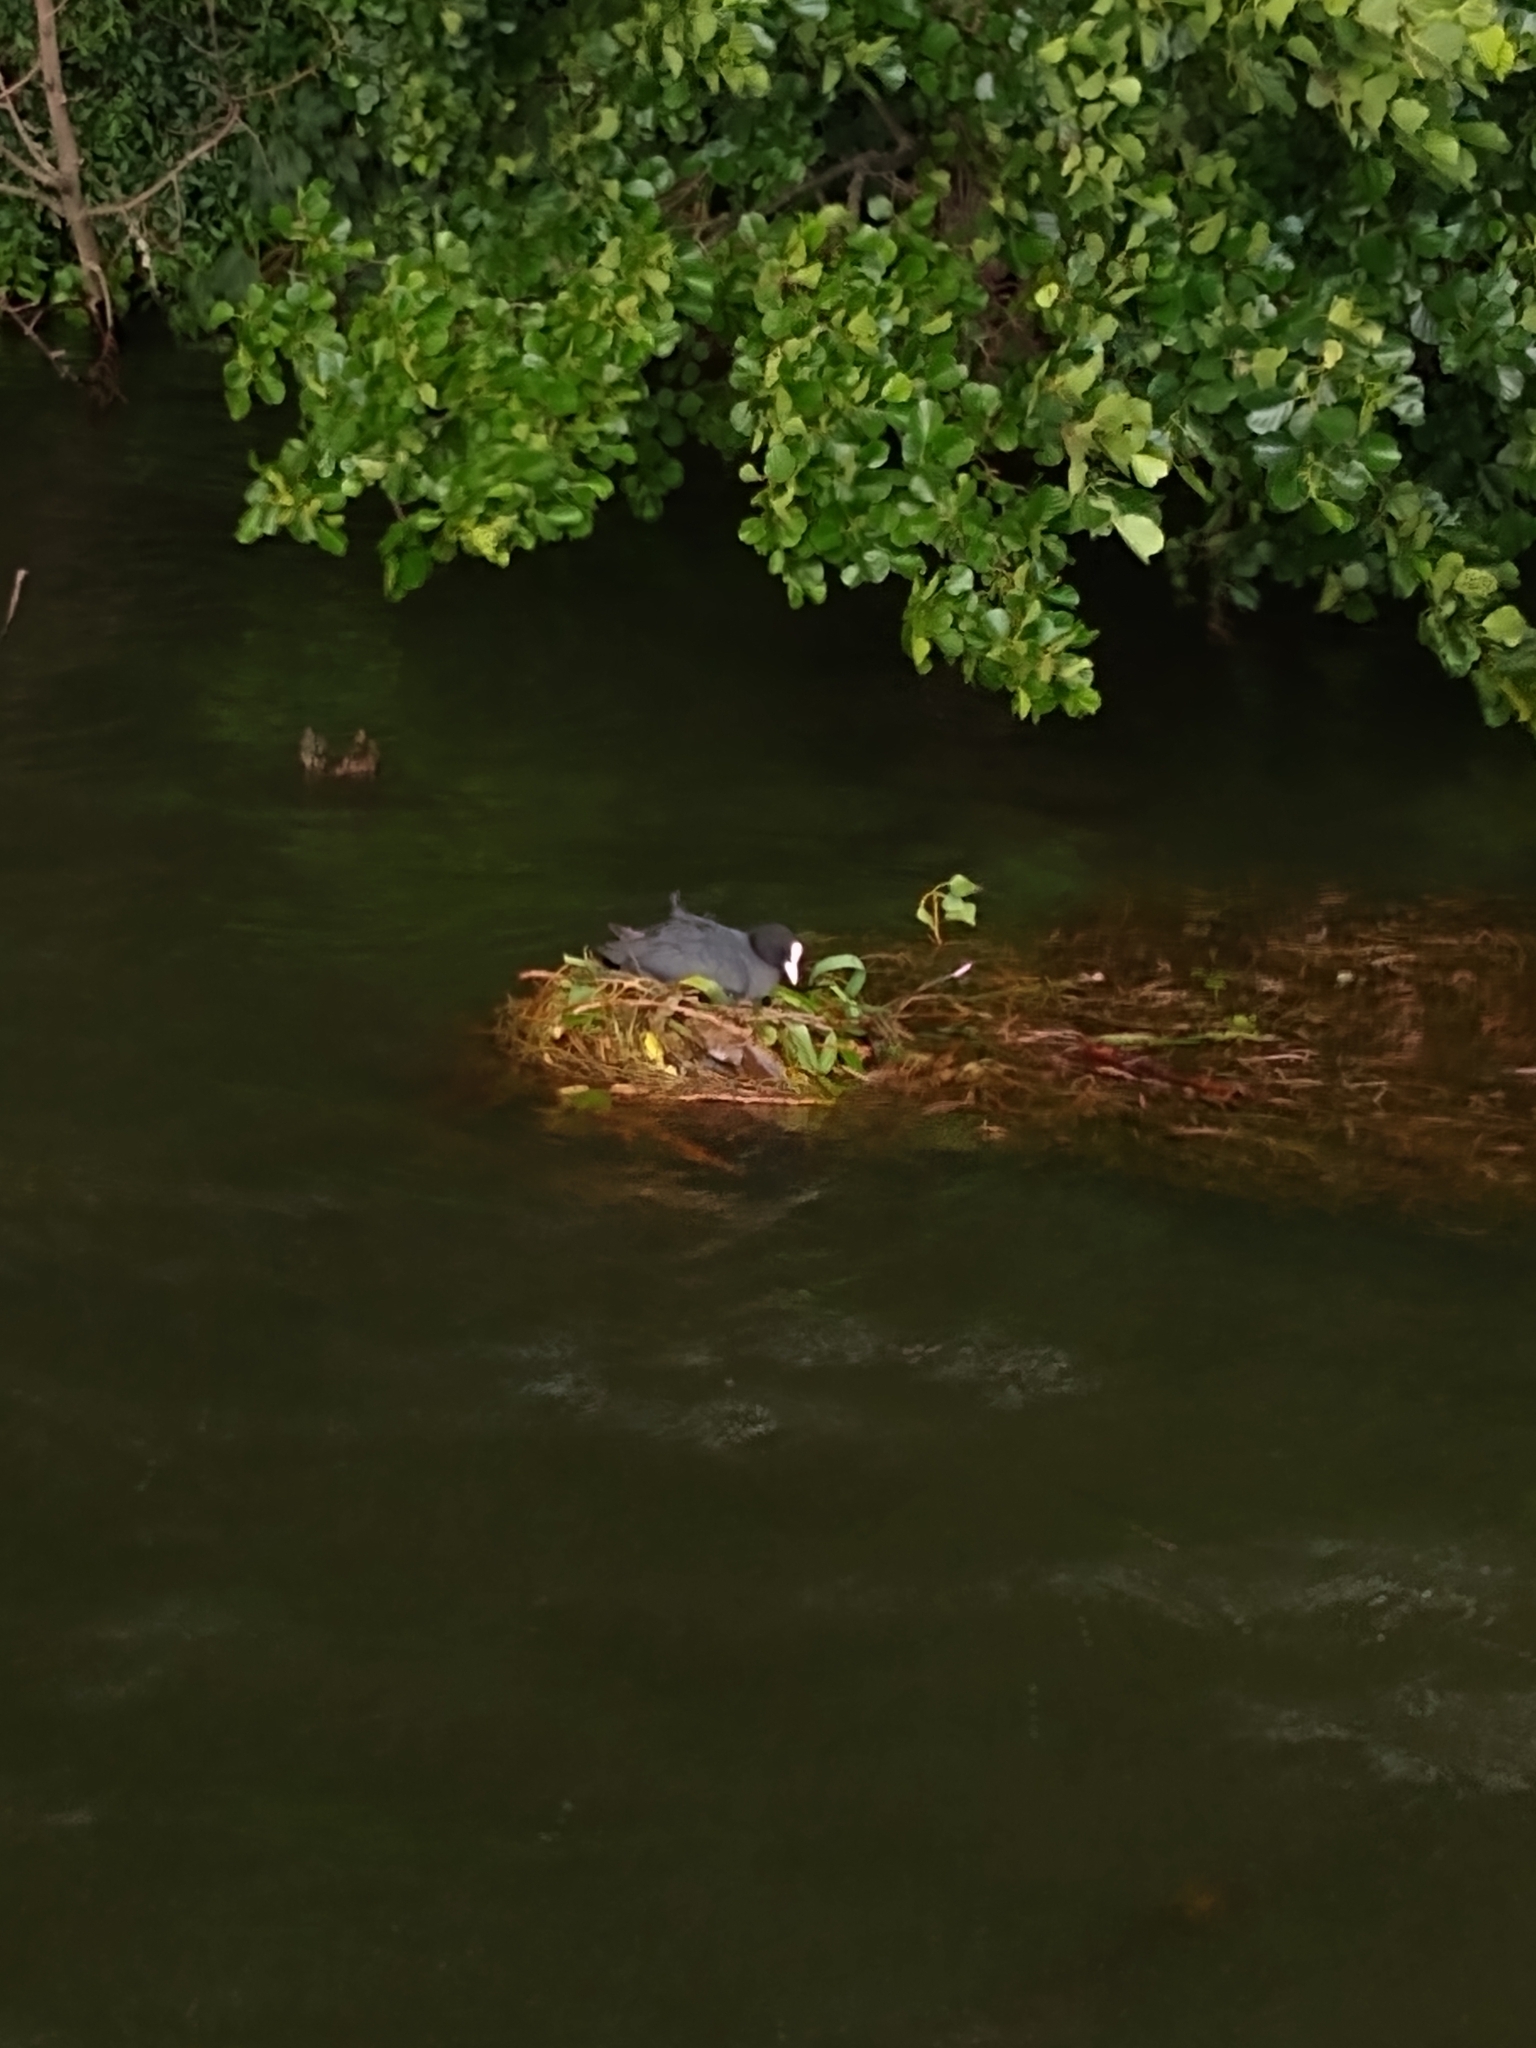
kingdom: Animalia
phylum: Chordata
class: Aves
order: Gruiformes
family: Rallidae
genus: Fulica
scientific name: Fulica atra
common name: Eurasian coot
